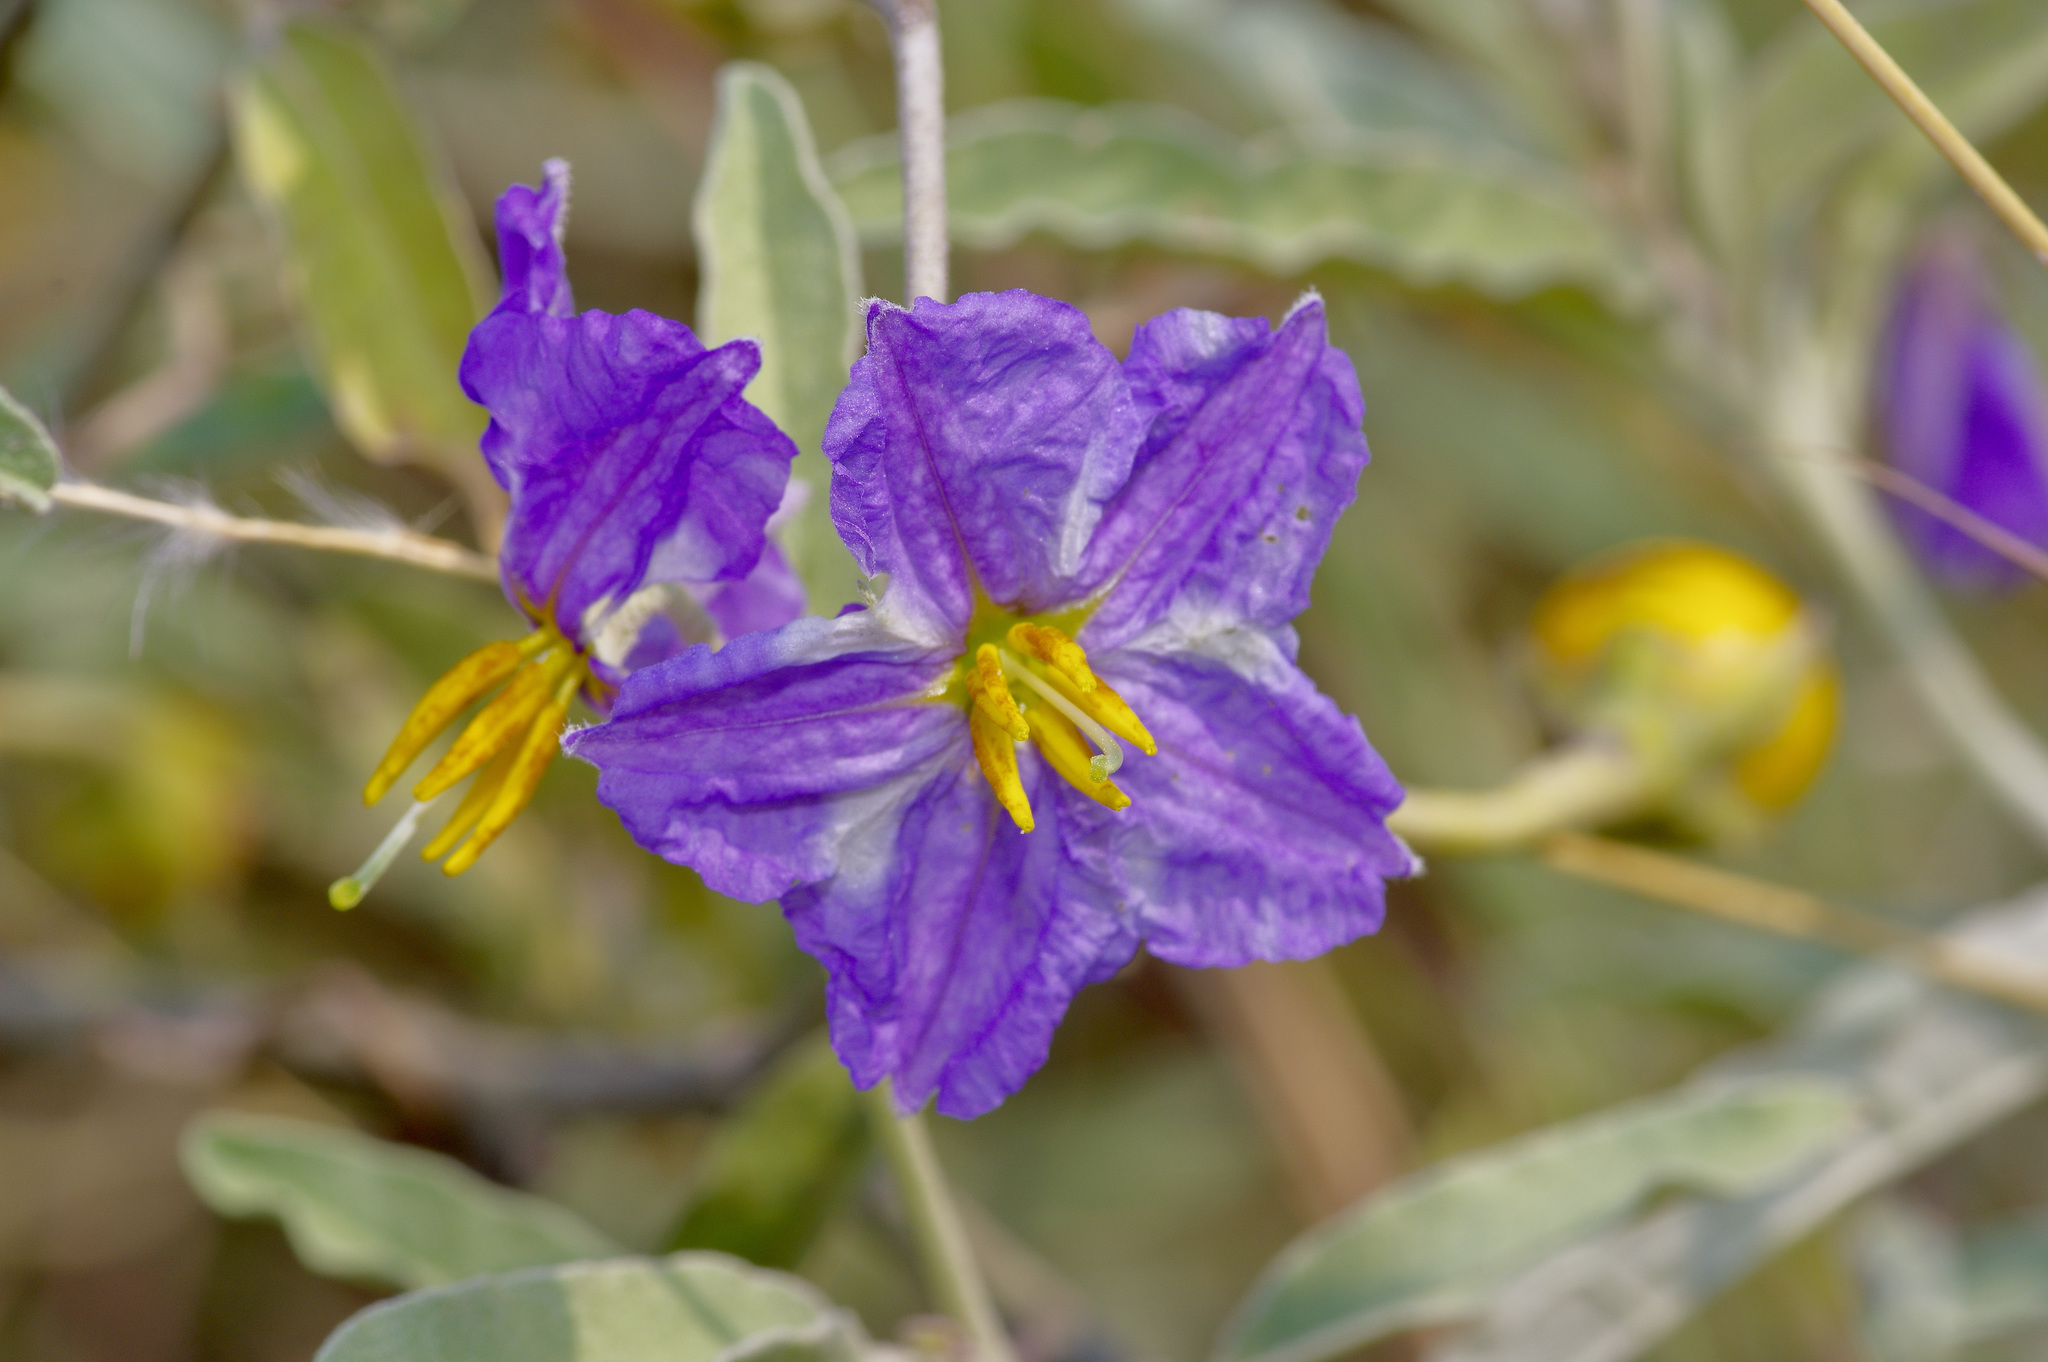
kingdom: Plantae
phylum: Tracheophyta
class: Magnoliopsida
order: Solanales
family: Solanaceae
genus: Solanum
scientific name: Solanum elaeagnifolium
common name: Silverleaf nightshade
